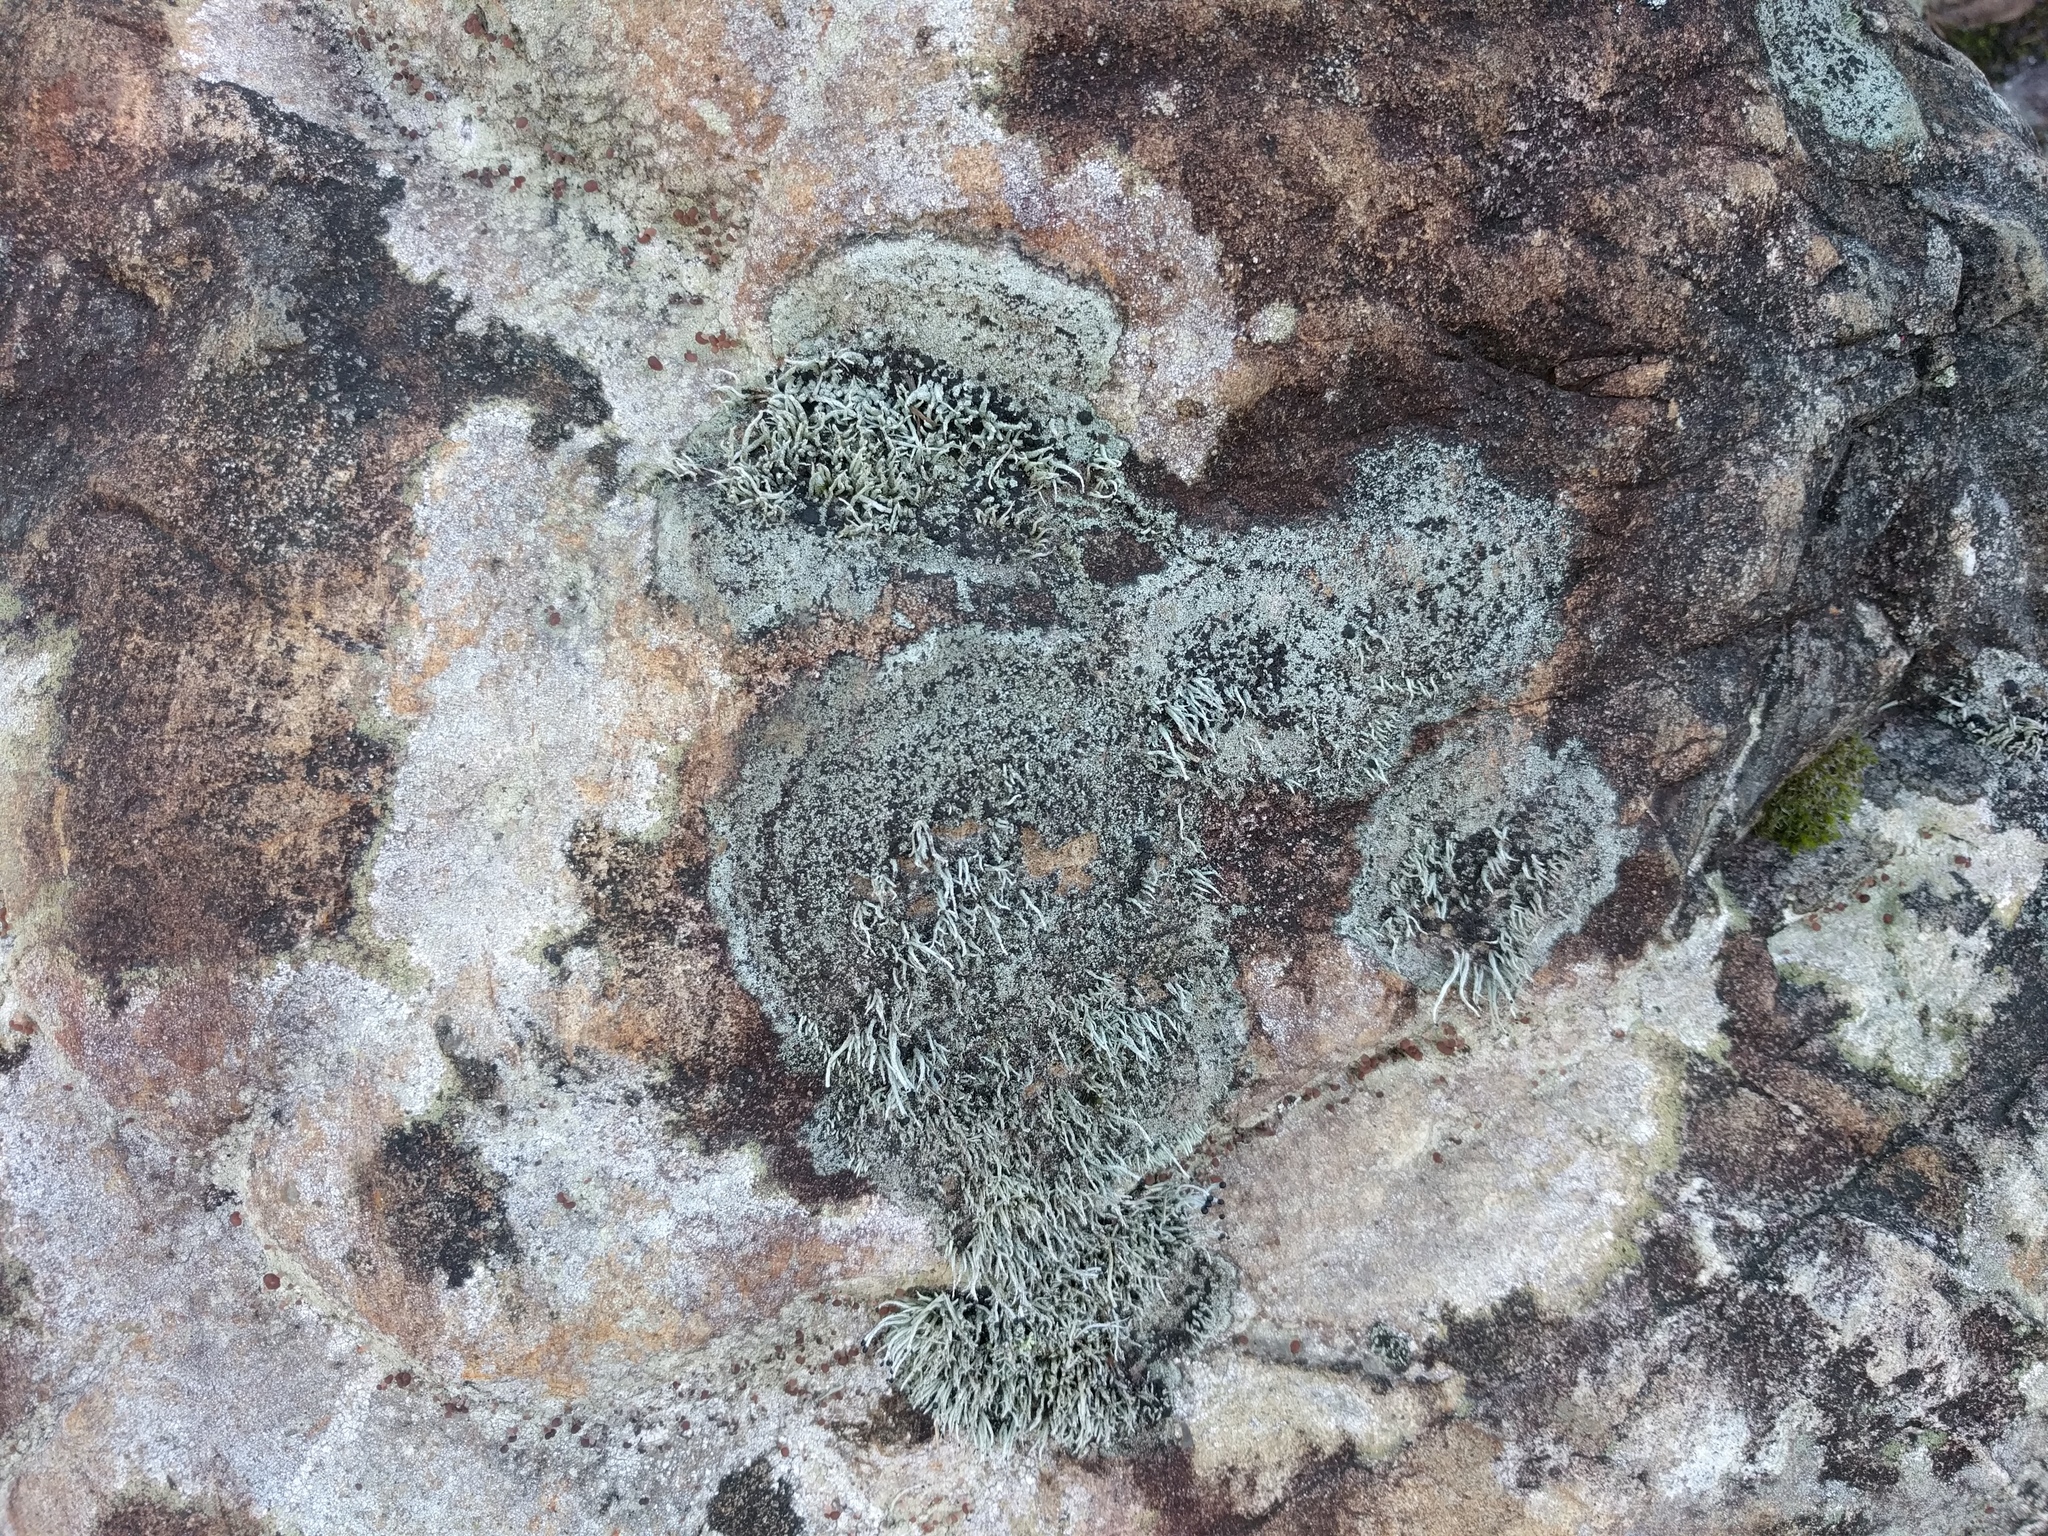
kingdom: Fungi
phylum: Ascomycota
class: Lecanoromycetes
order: Lecanorales
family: Cladoniaceae
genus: Pilophorus
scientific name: Pilophorus acicularis
